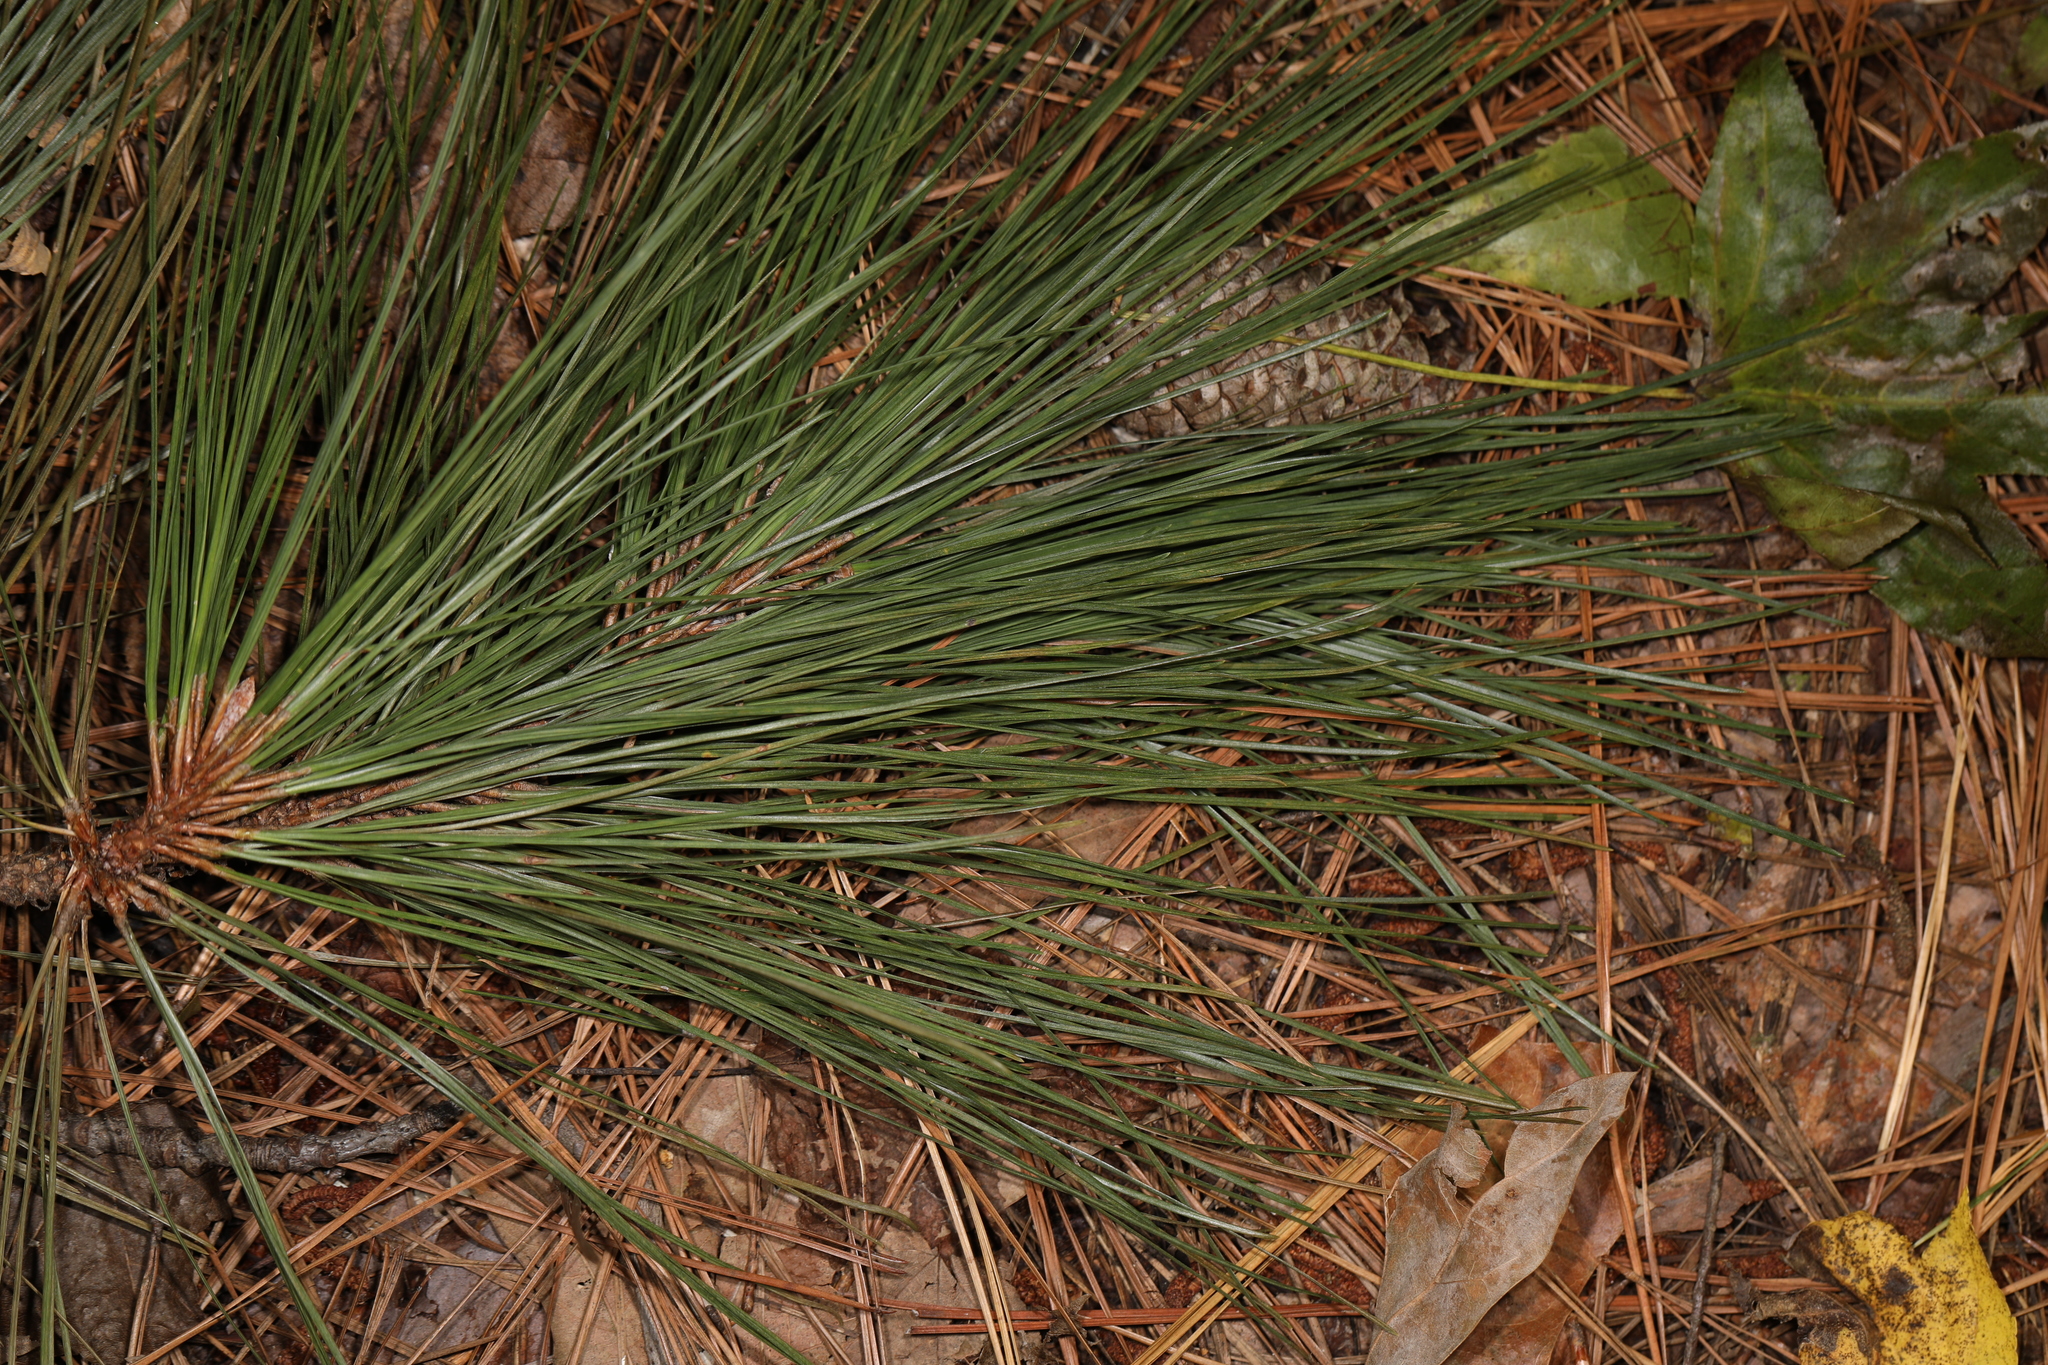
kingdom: Plantae
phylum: Tracheophyta
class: Pinopsida
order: Pinales
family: Pinaceae
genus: Pinus
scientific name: Pinus taeda
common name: Loblolly pine
